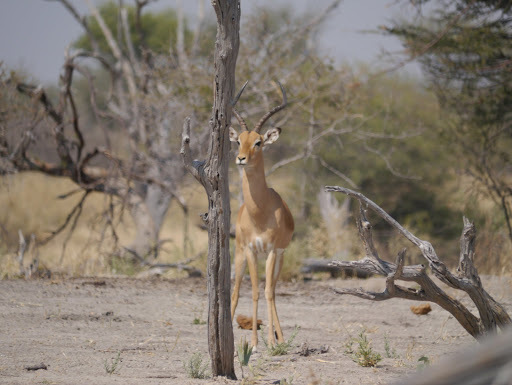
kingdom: Animalia
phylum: Chordata
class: Mammalia
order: Artiodactyla
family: Bovidae
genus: Aepyceros
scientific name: Aepyceros melampus
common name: Impala
